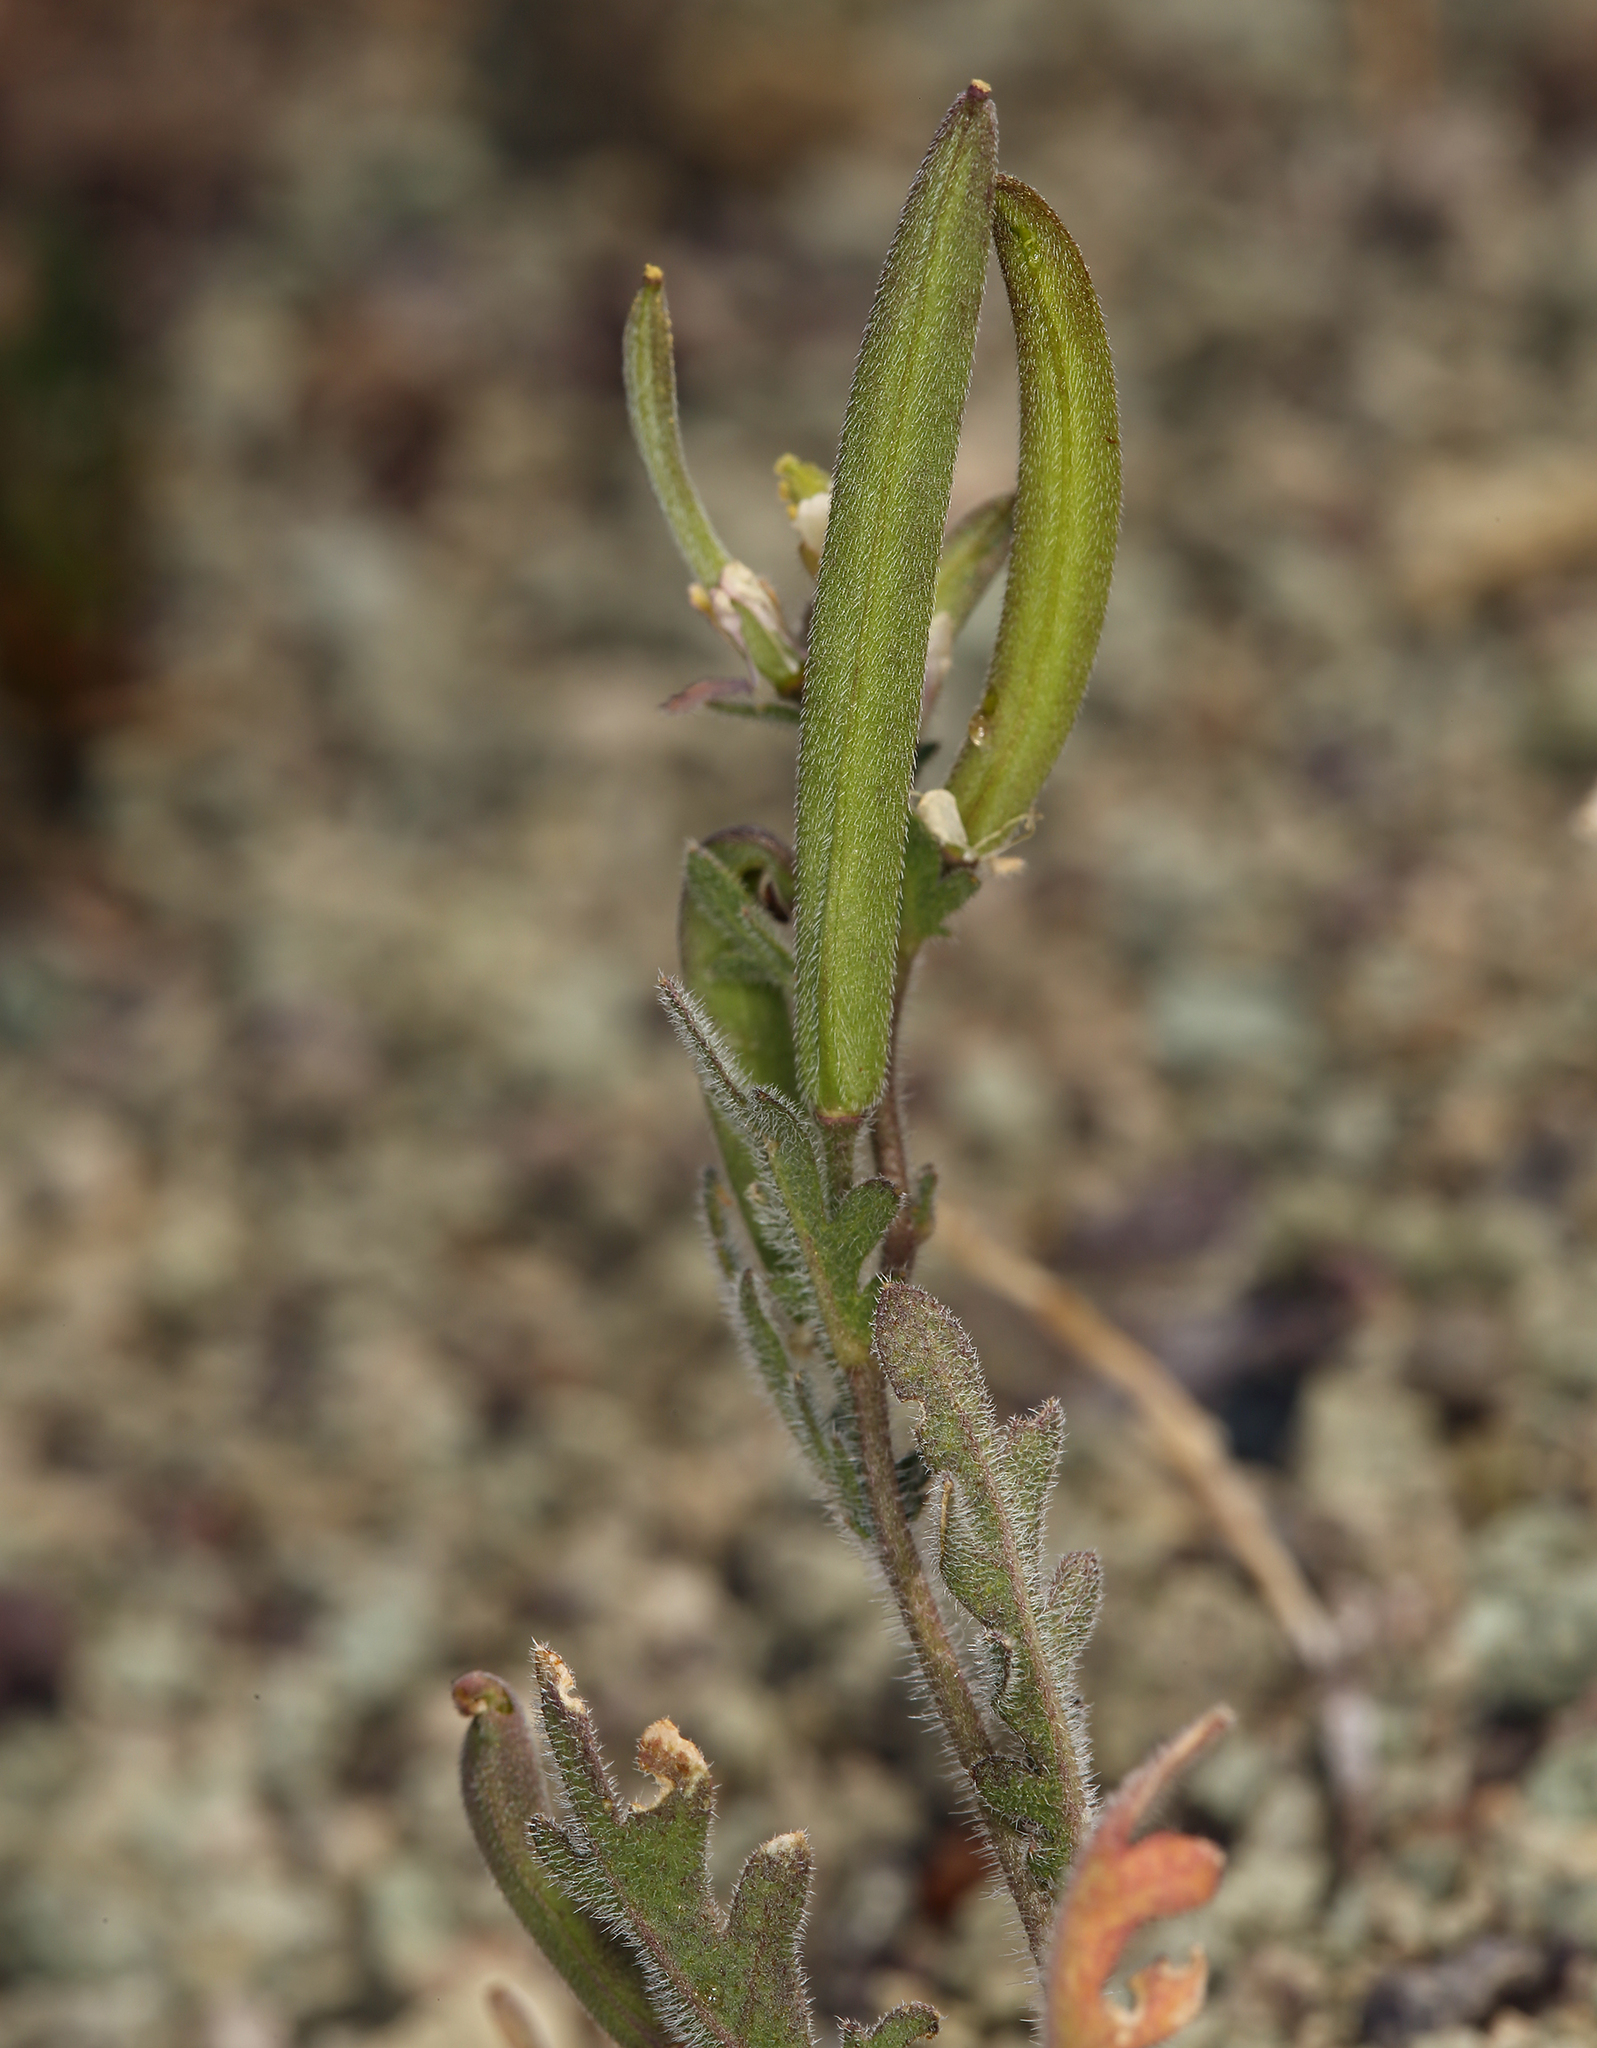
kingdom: Plantae
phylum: Tracheophyta
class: Magnoliopsida
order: Brassicales
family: Brassicaceae
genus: Tropidocarpum
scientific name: Tropidocarpum gracile
